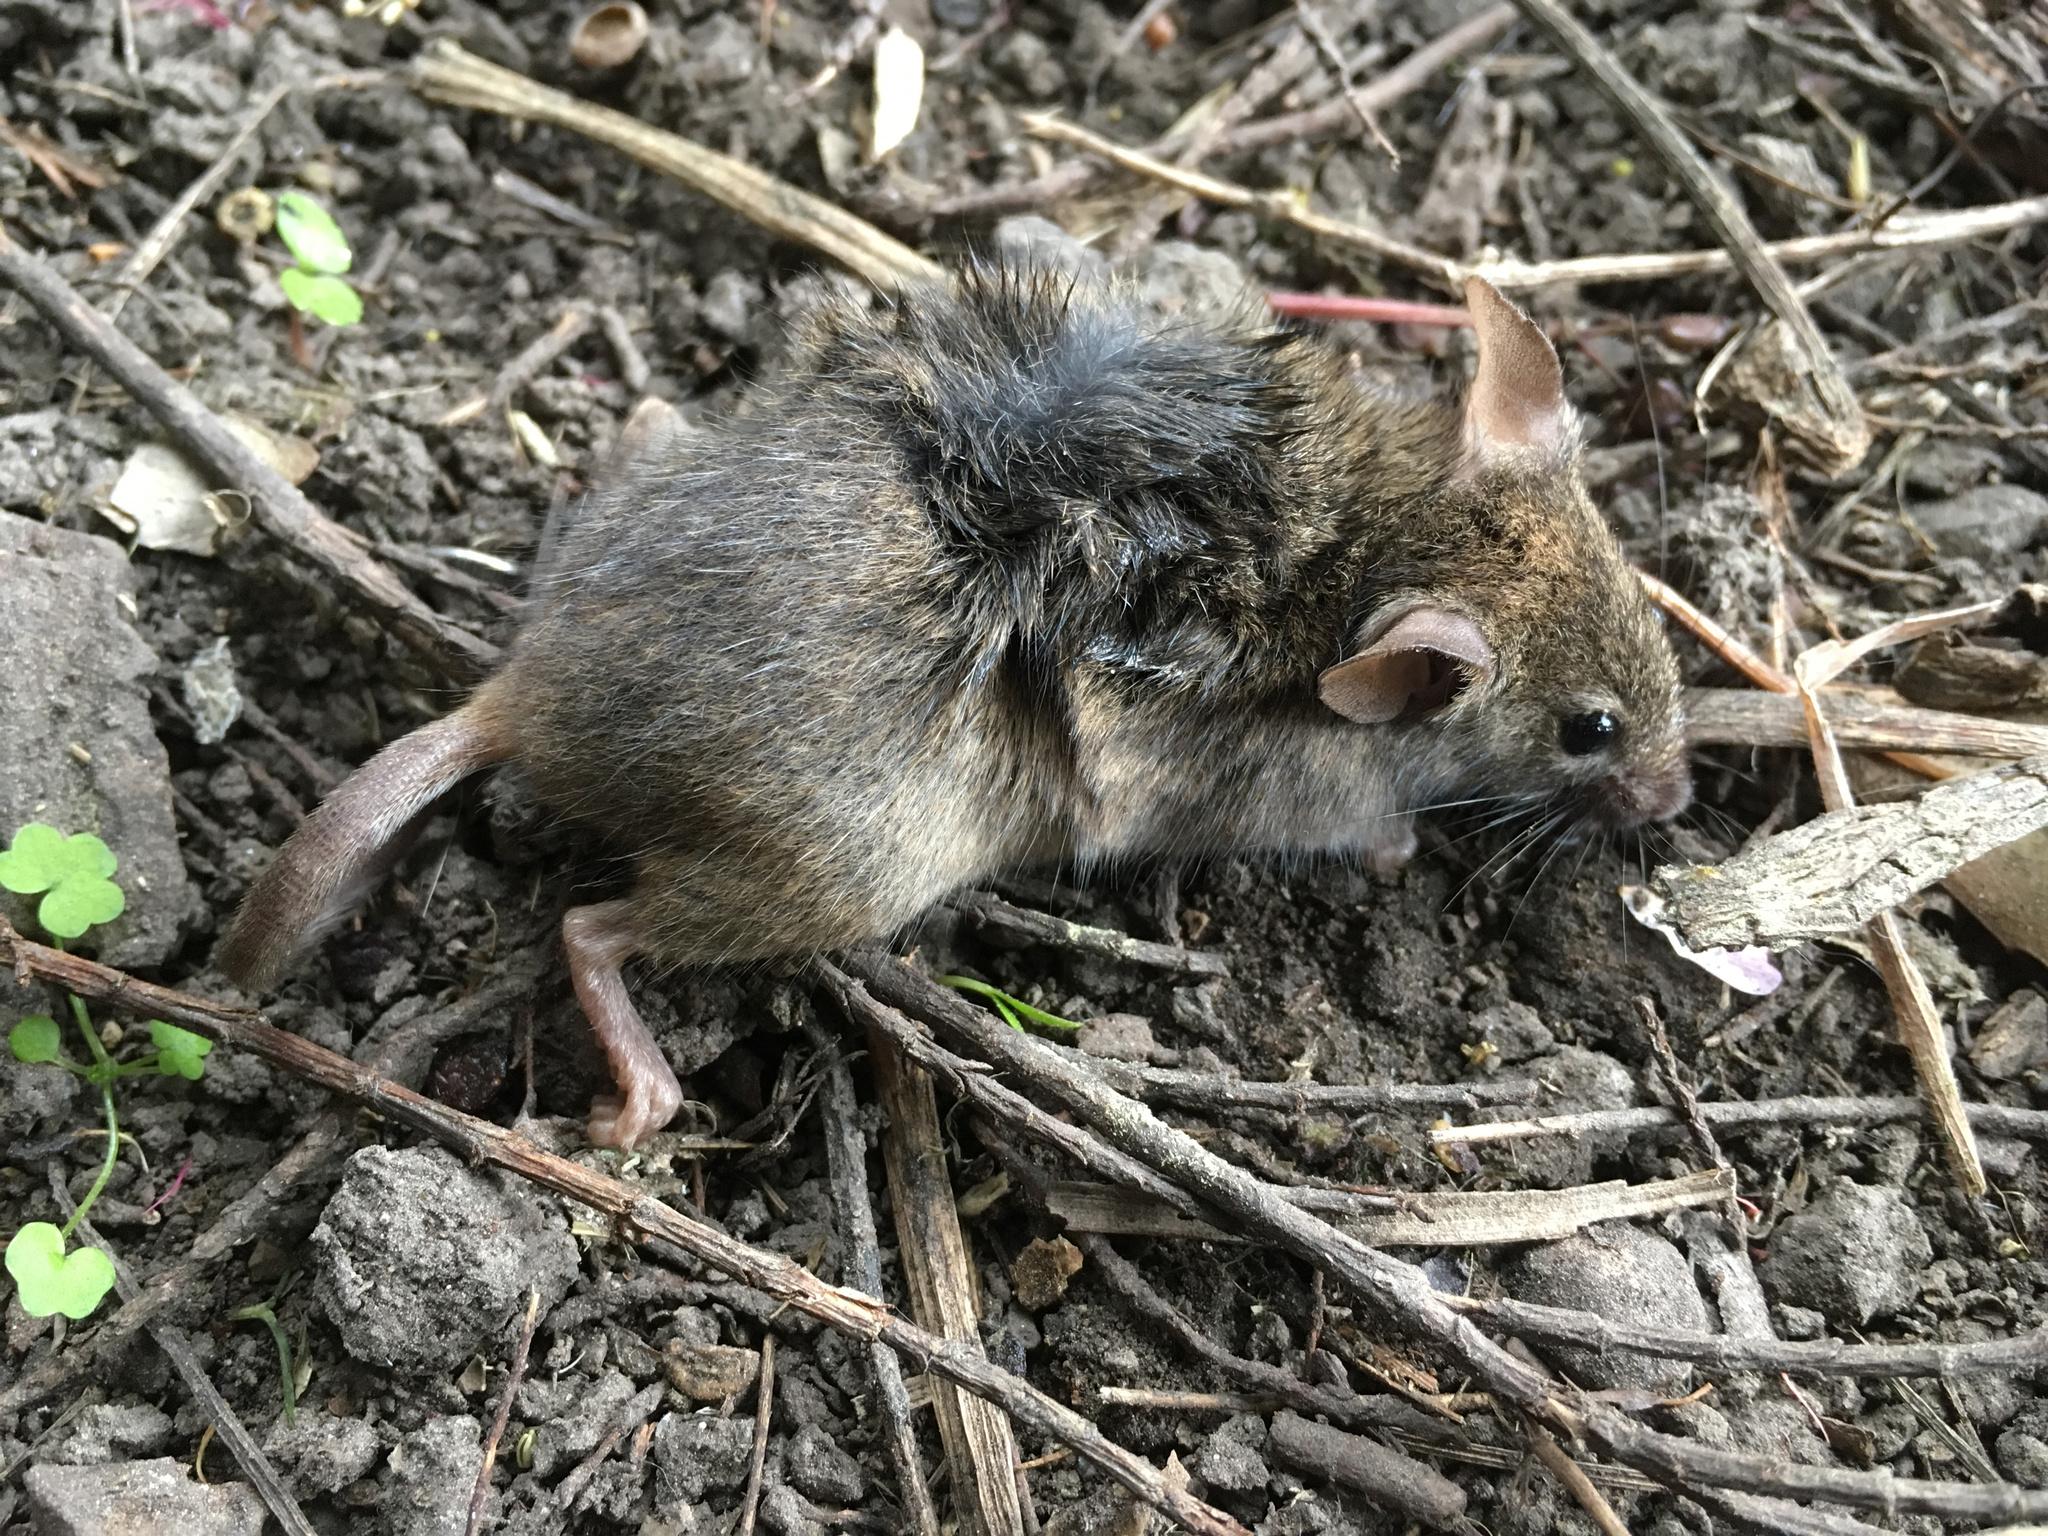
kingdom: Animalia
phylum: Chordata
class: Mammalia
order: Rodentia
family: Muridae
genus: Mus
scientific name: Mus musculus
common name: House mouse
